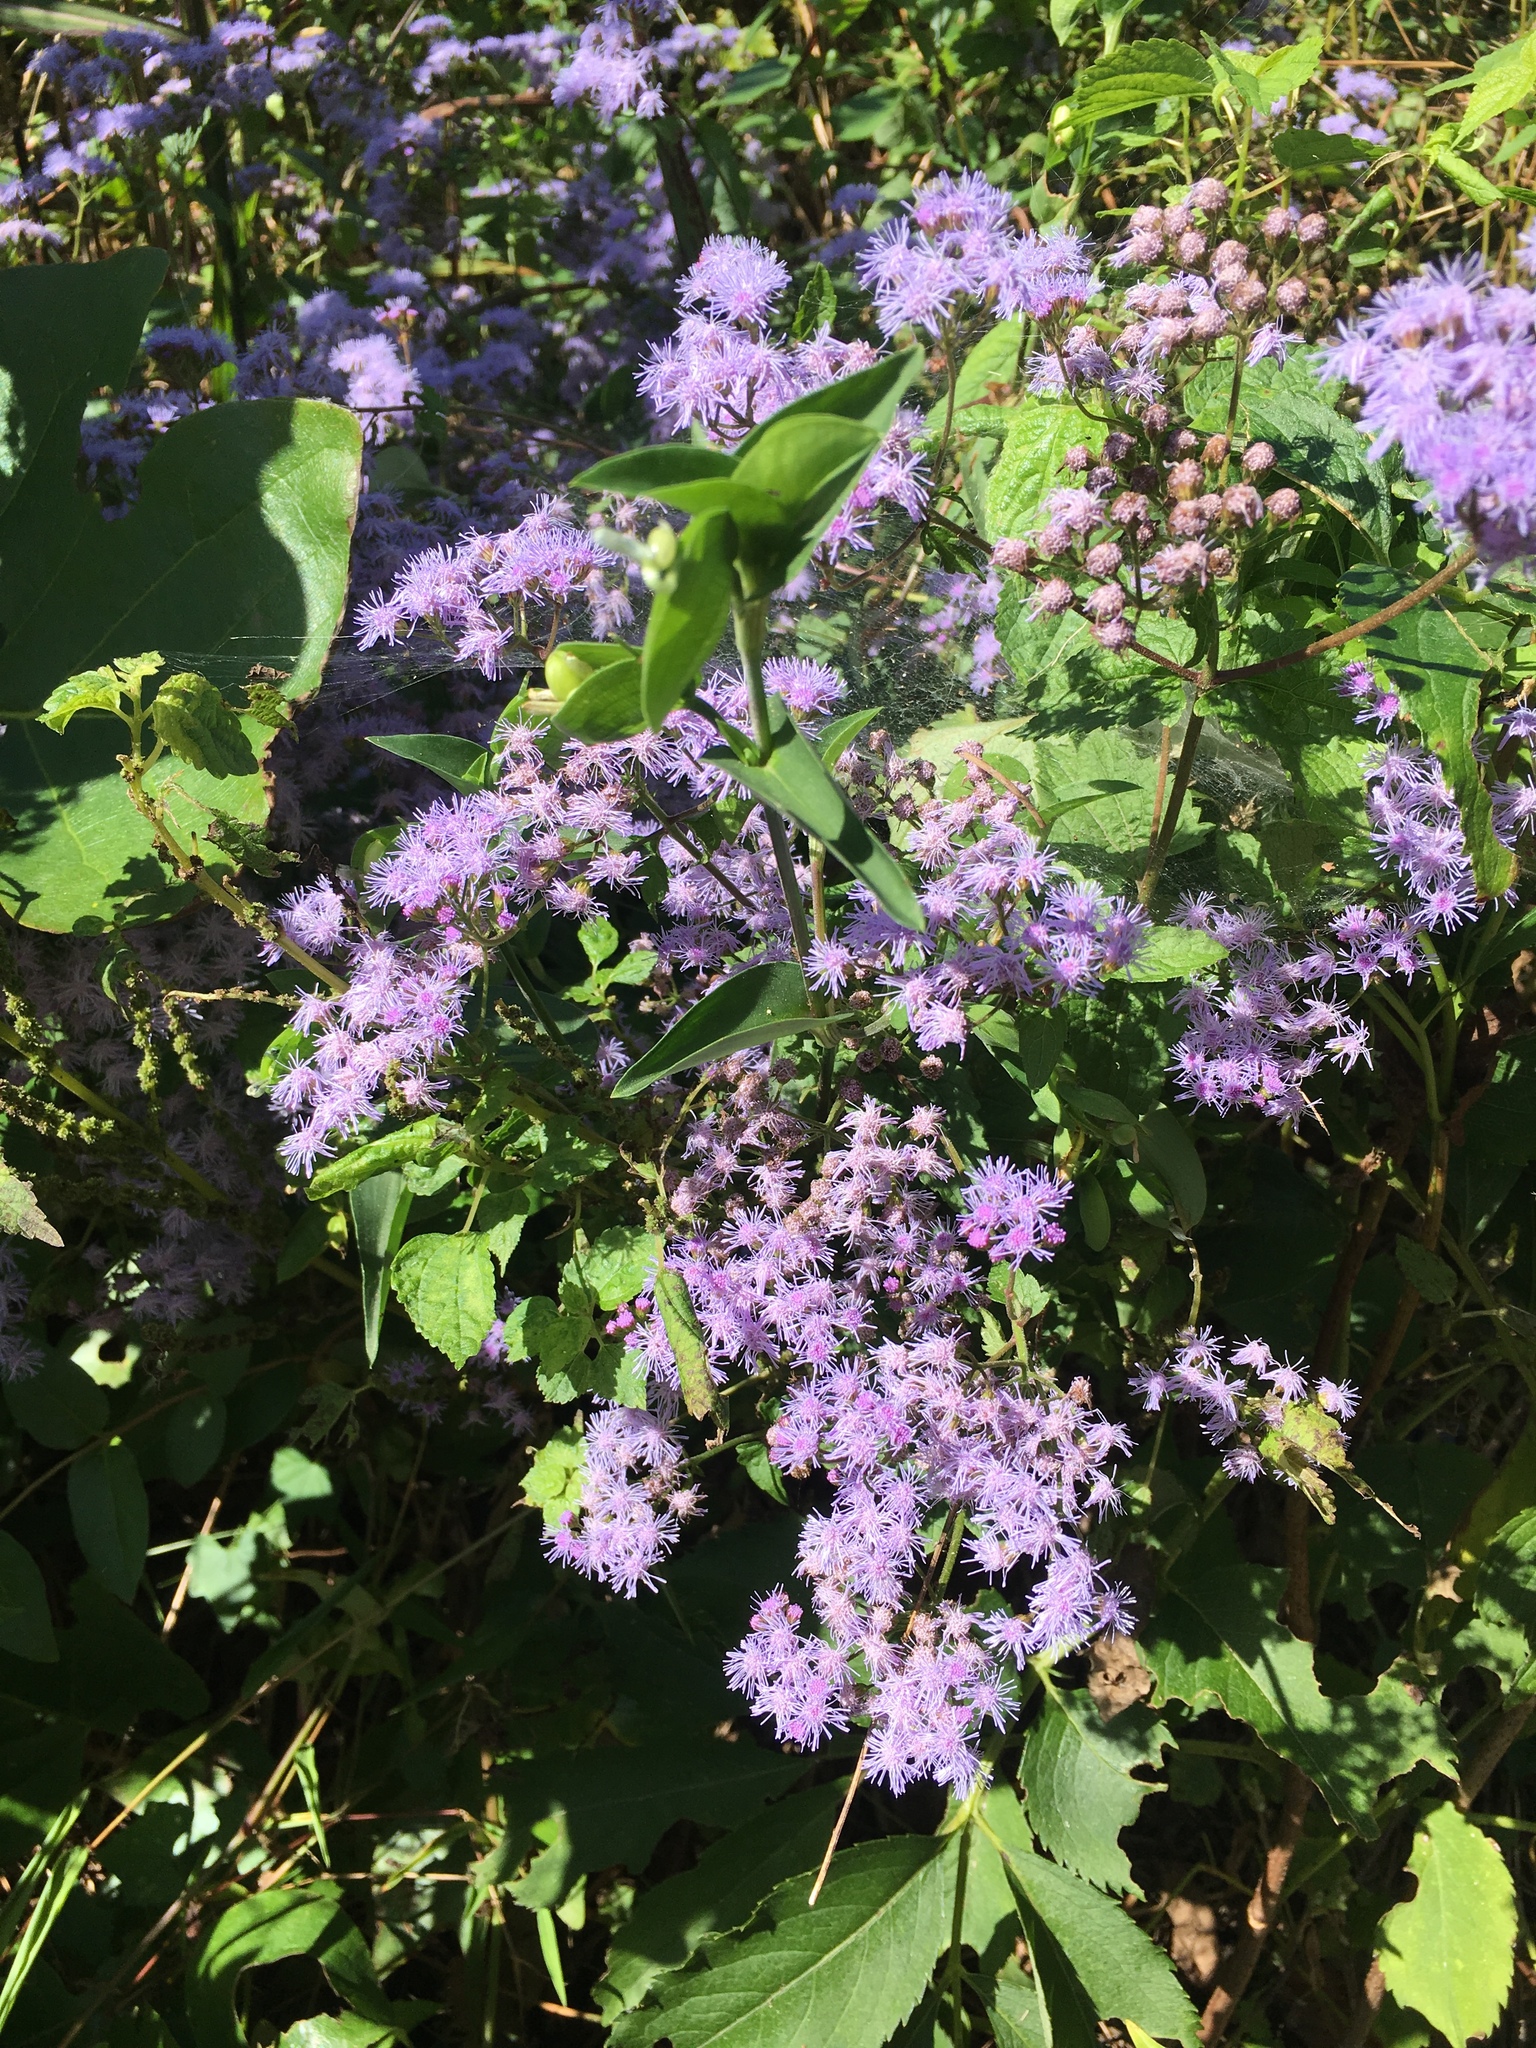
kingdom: Plantae
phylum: Tracheophyta
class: Magnoliopsida
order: Asterales
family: Asteraceae
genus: Conoclinium
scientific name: Conoclinium coelestinum
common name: Blue mistflower
